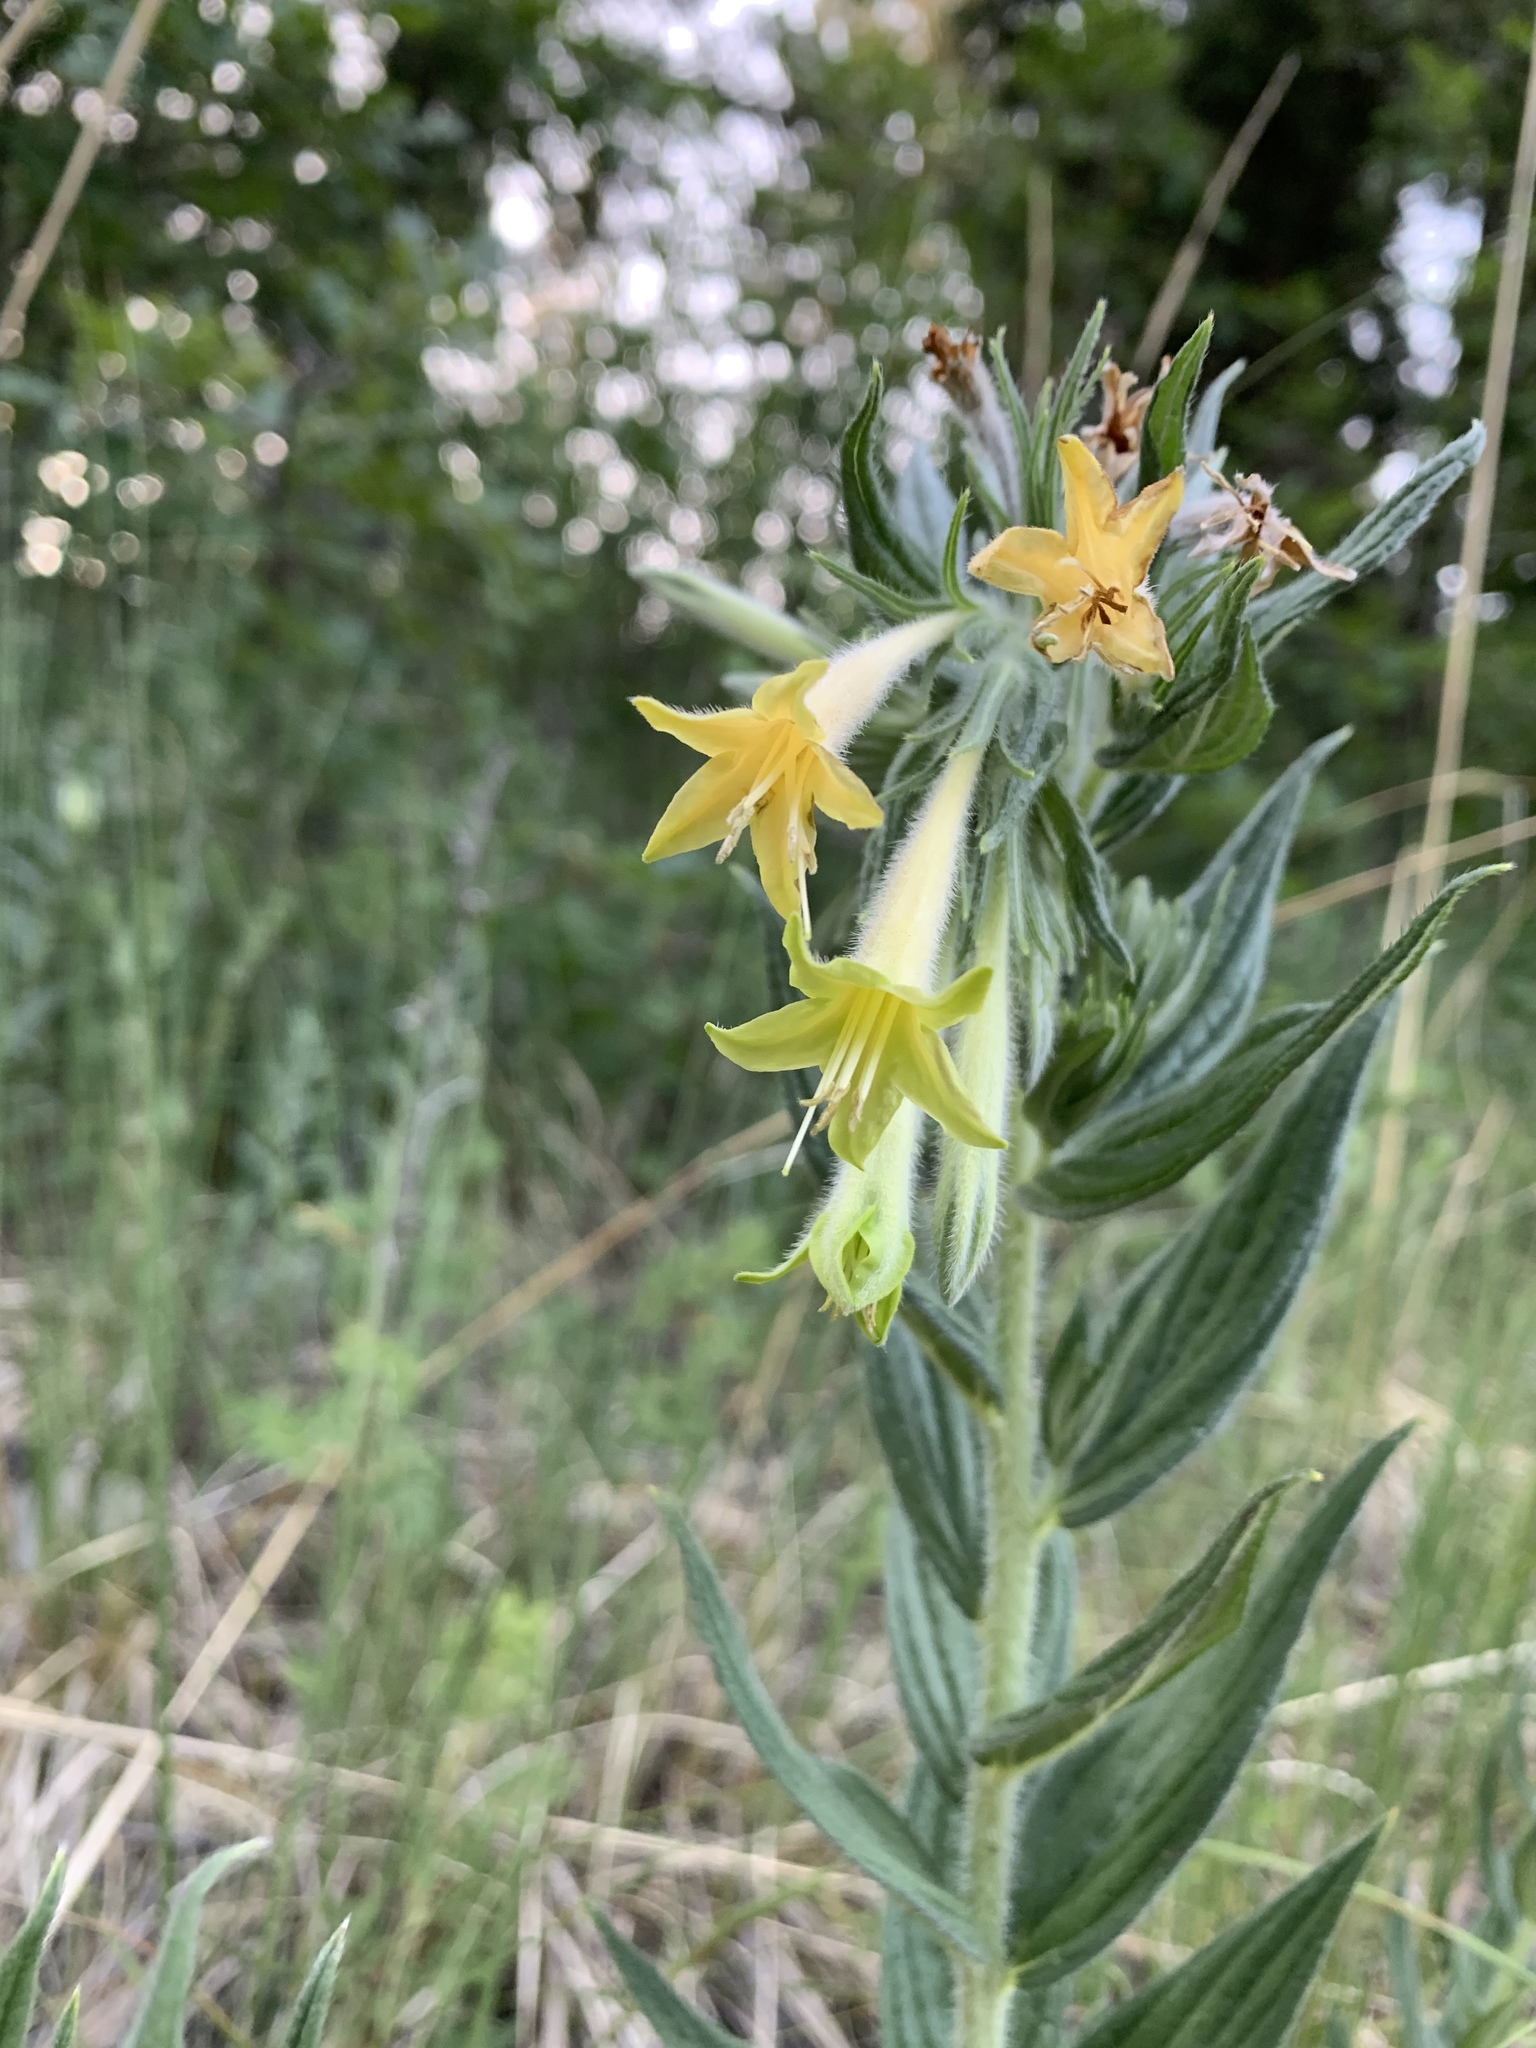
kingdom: Plantae
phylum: Tracheophyta
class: Magnoliopsida
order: Boraginales
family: Boraginaceae
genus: Lithospermum
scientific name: Lithospermum thurberi
